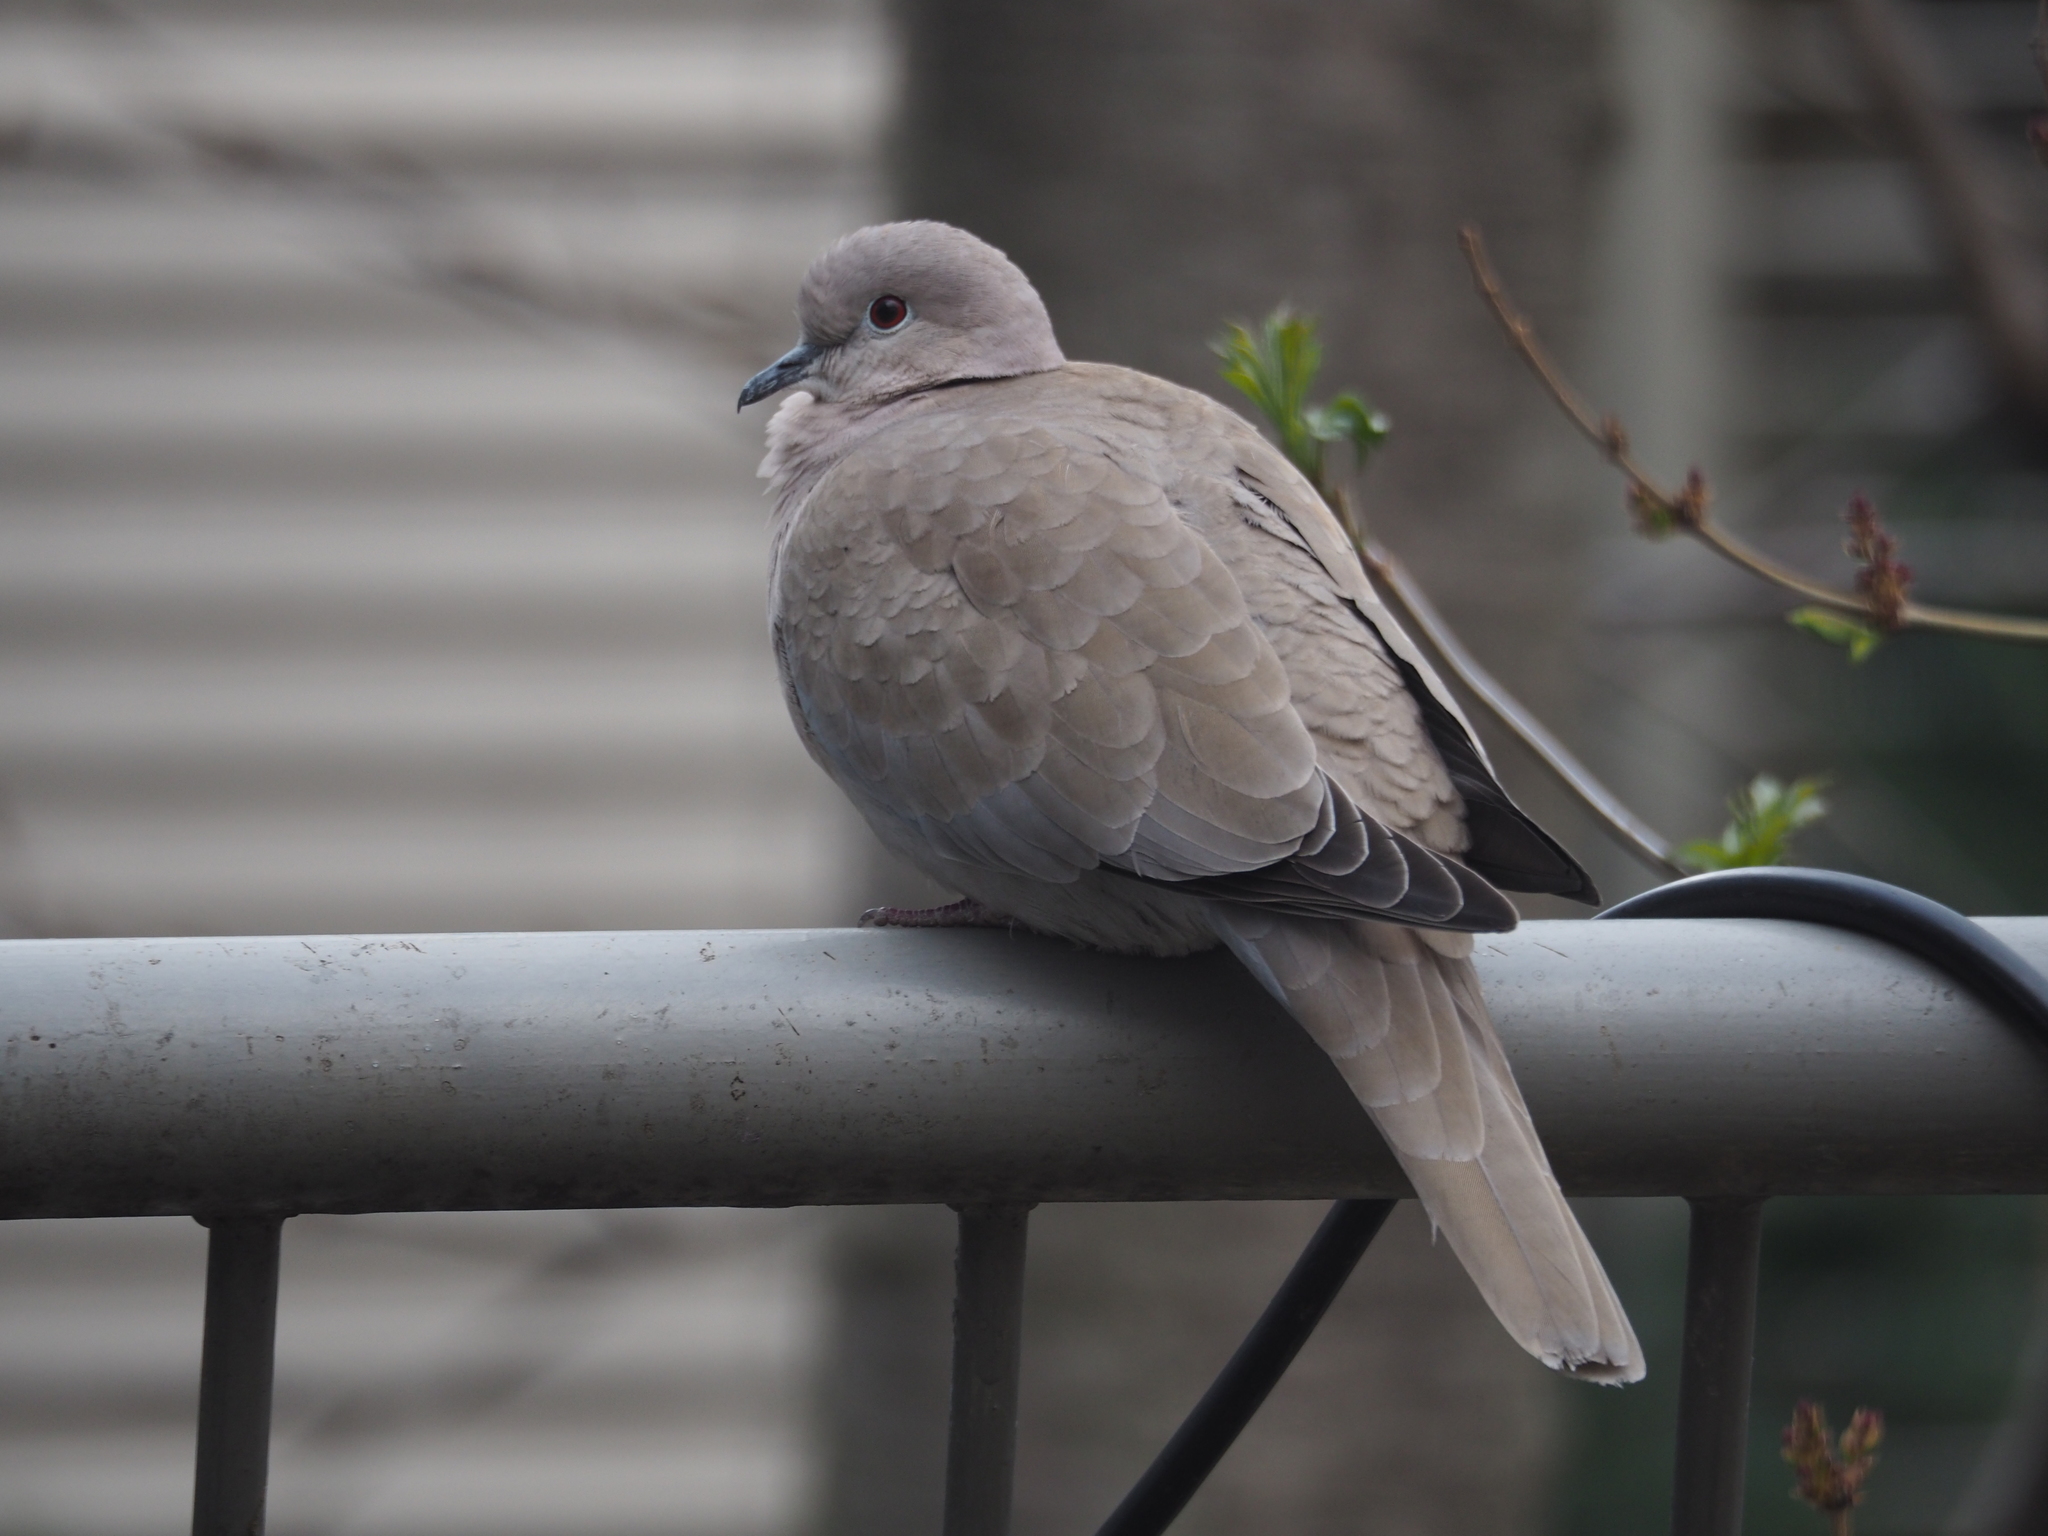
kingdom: Animalia
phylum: Chordata
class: Aves
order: Columbiformes
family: Columbidae
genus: Streptopelia
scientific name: Streptopelia decaocto
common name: Eurasian collared dove
